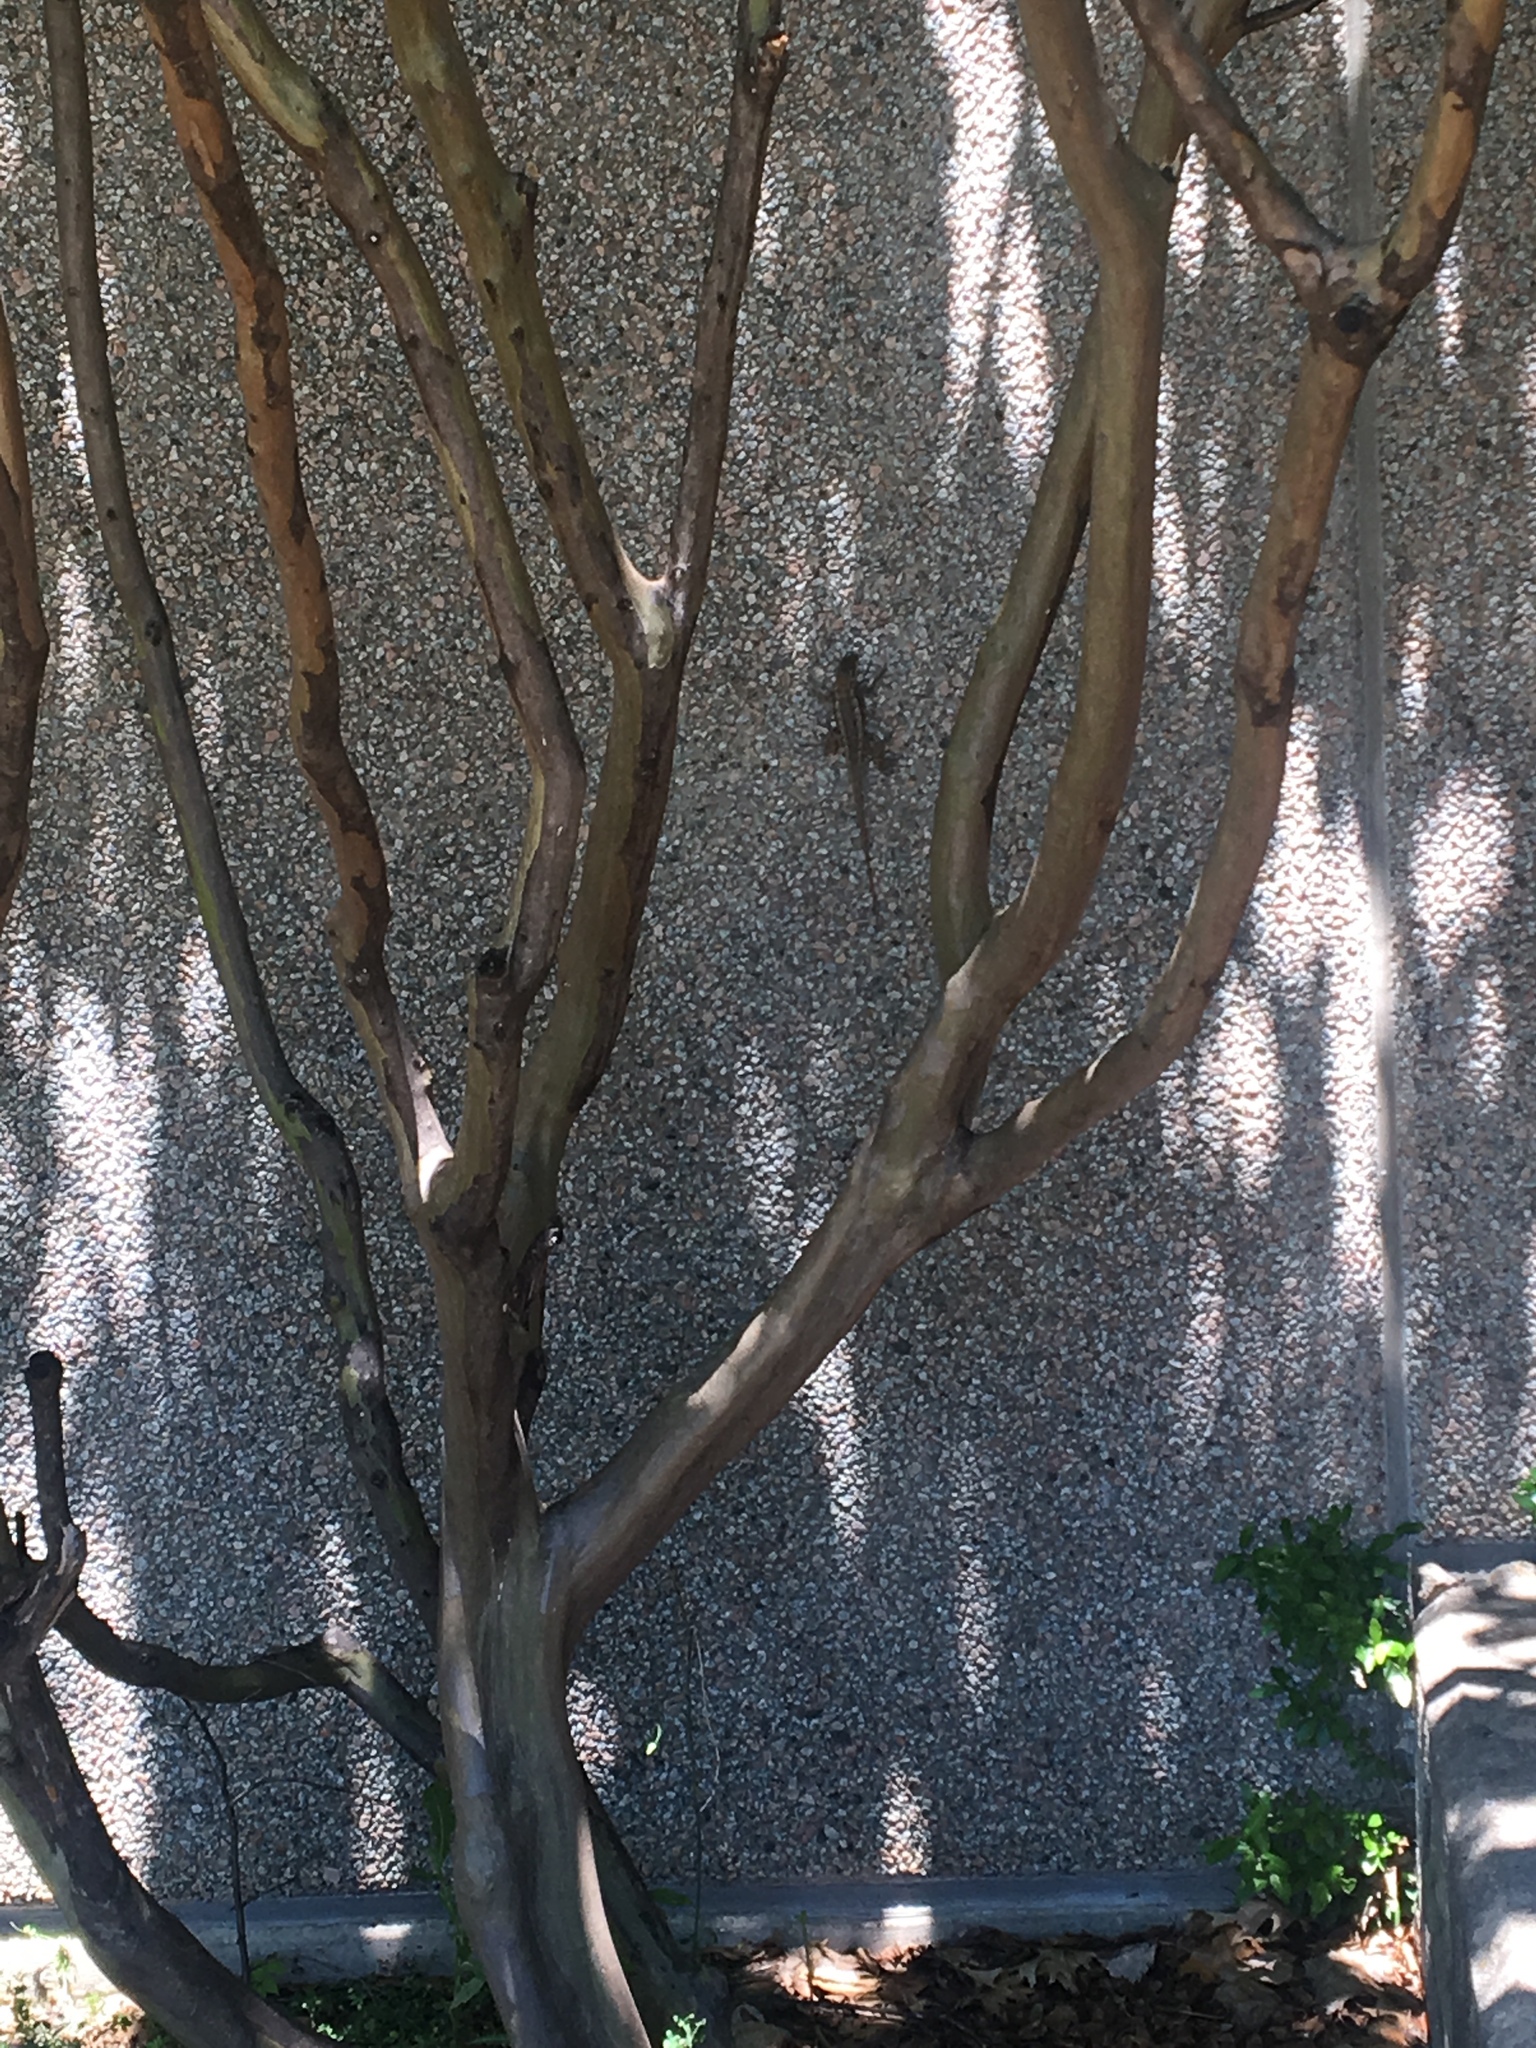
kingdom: Animalia
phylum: Chordata
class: Squamata
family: Phrynosomatidae
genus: Sceloporus
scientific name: Sceloporus olivaceus
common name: Texas spiny lizard
